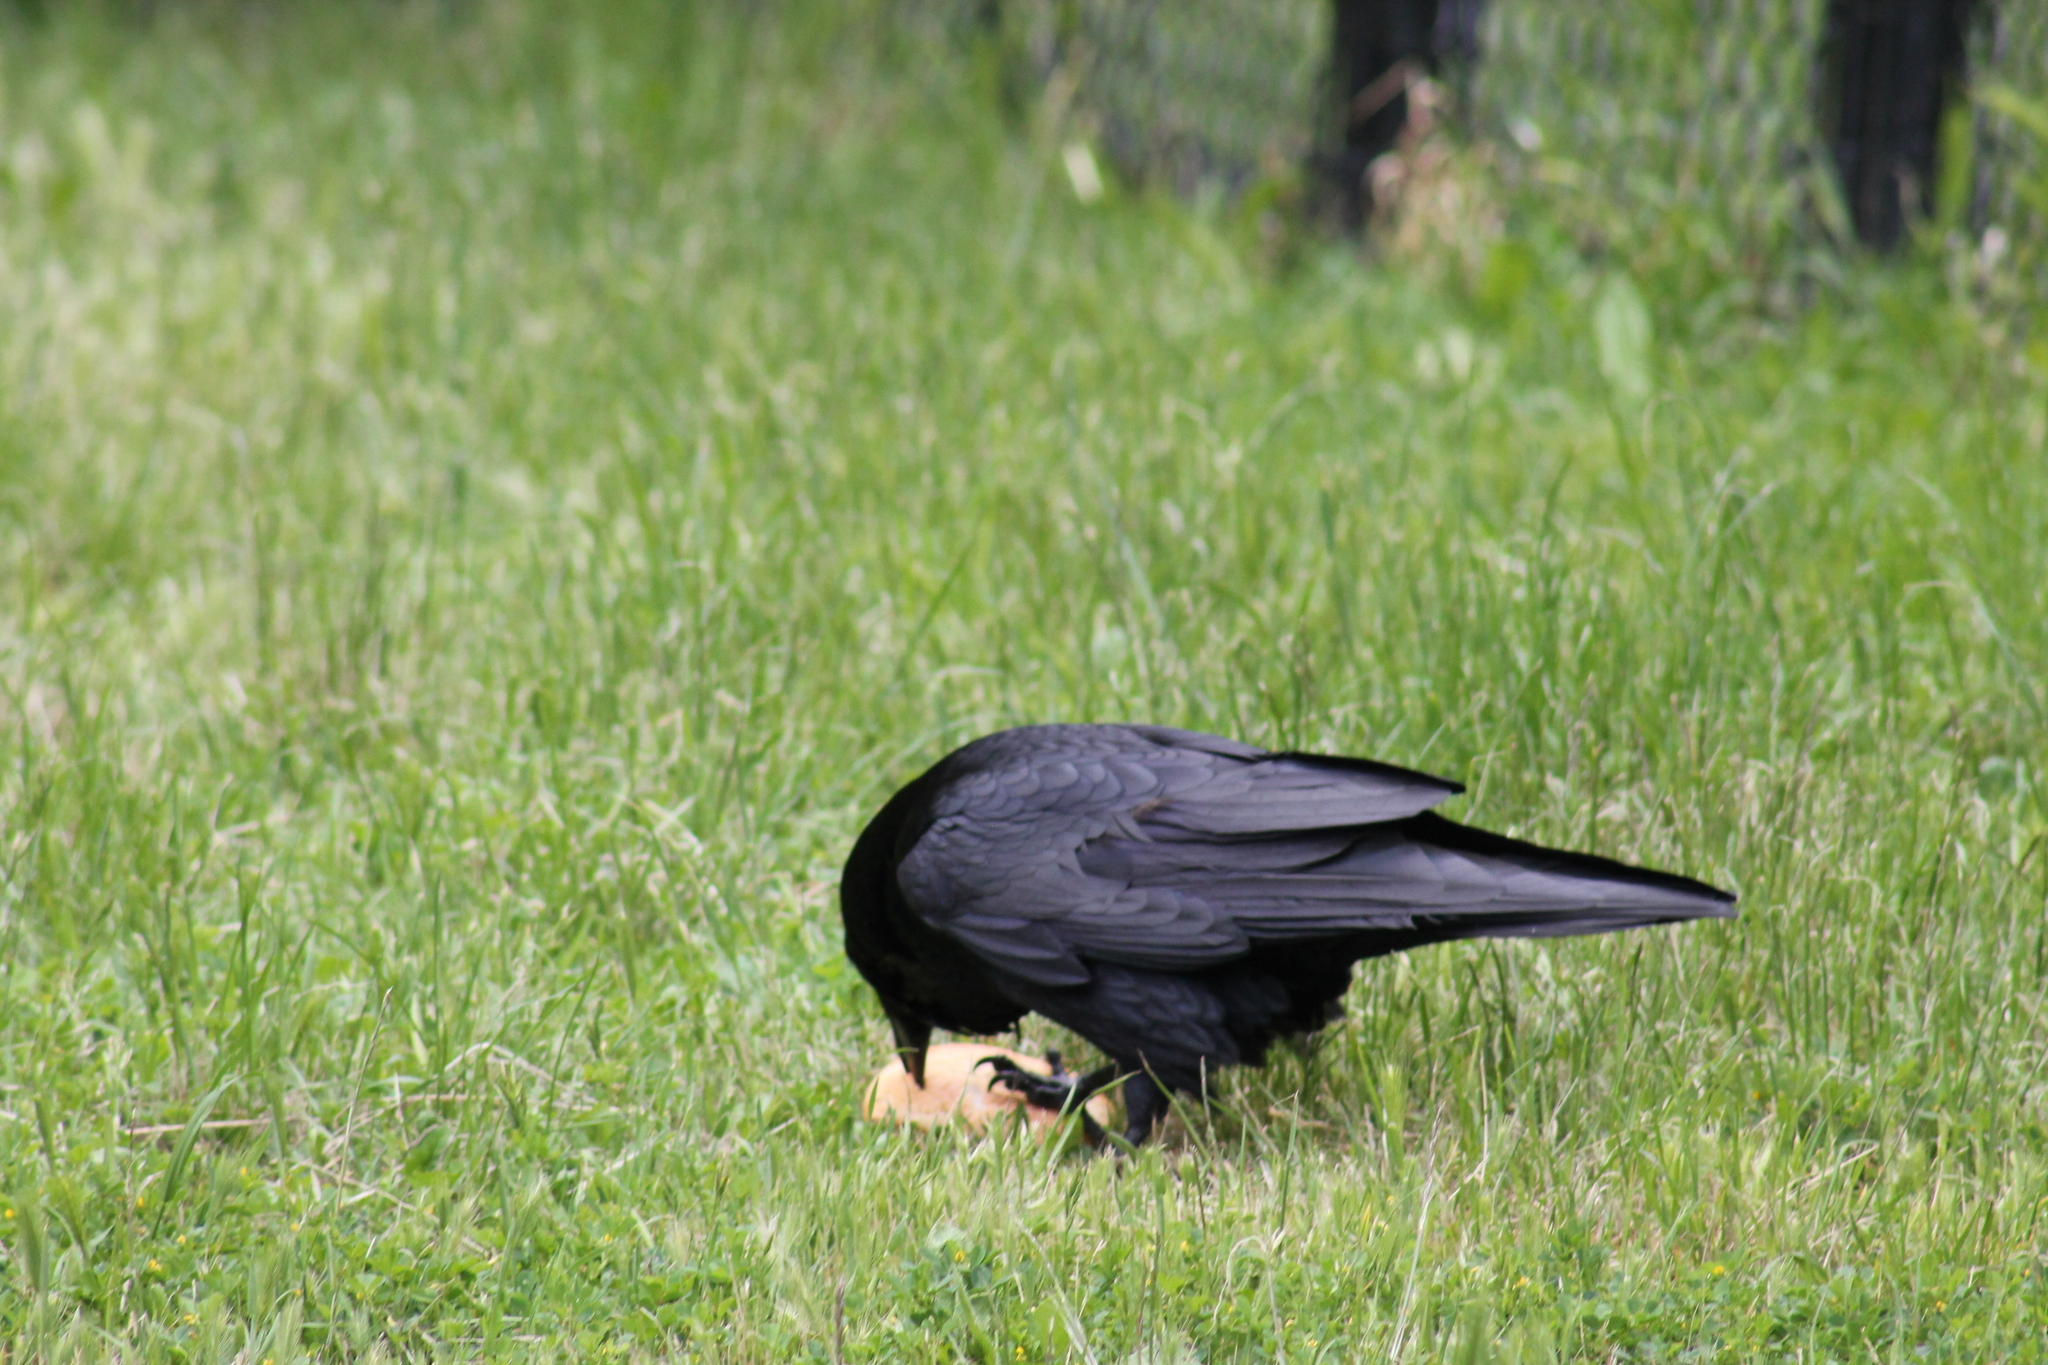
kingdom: Animalia
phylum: Chordata
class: Aves
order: Passeriformes
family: Corvidae
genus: Corvus
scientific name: Corvus corax
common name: Common raven
